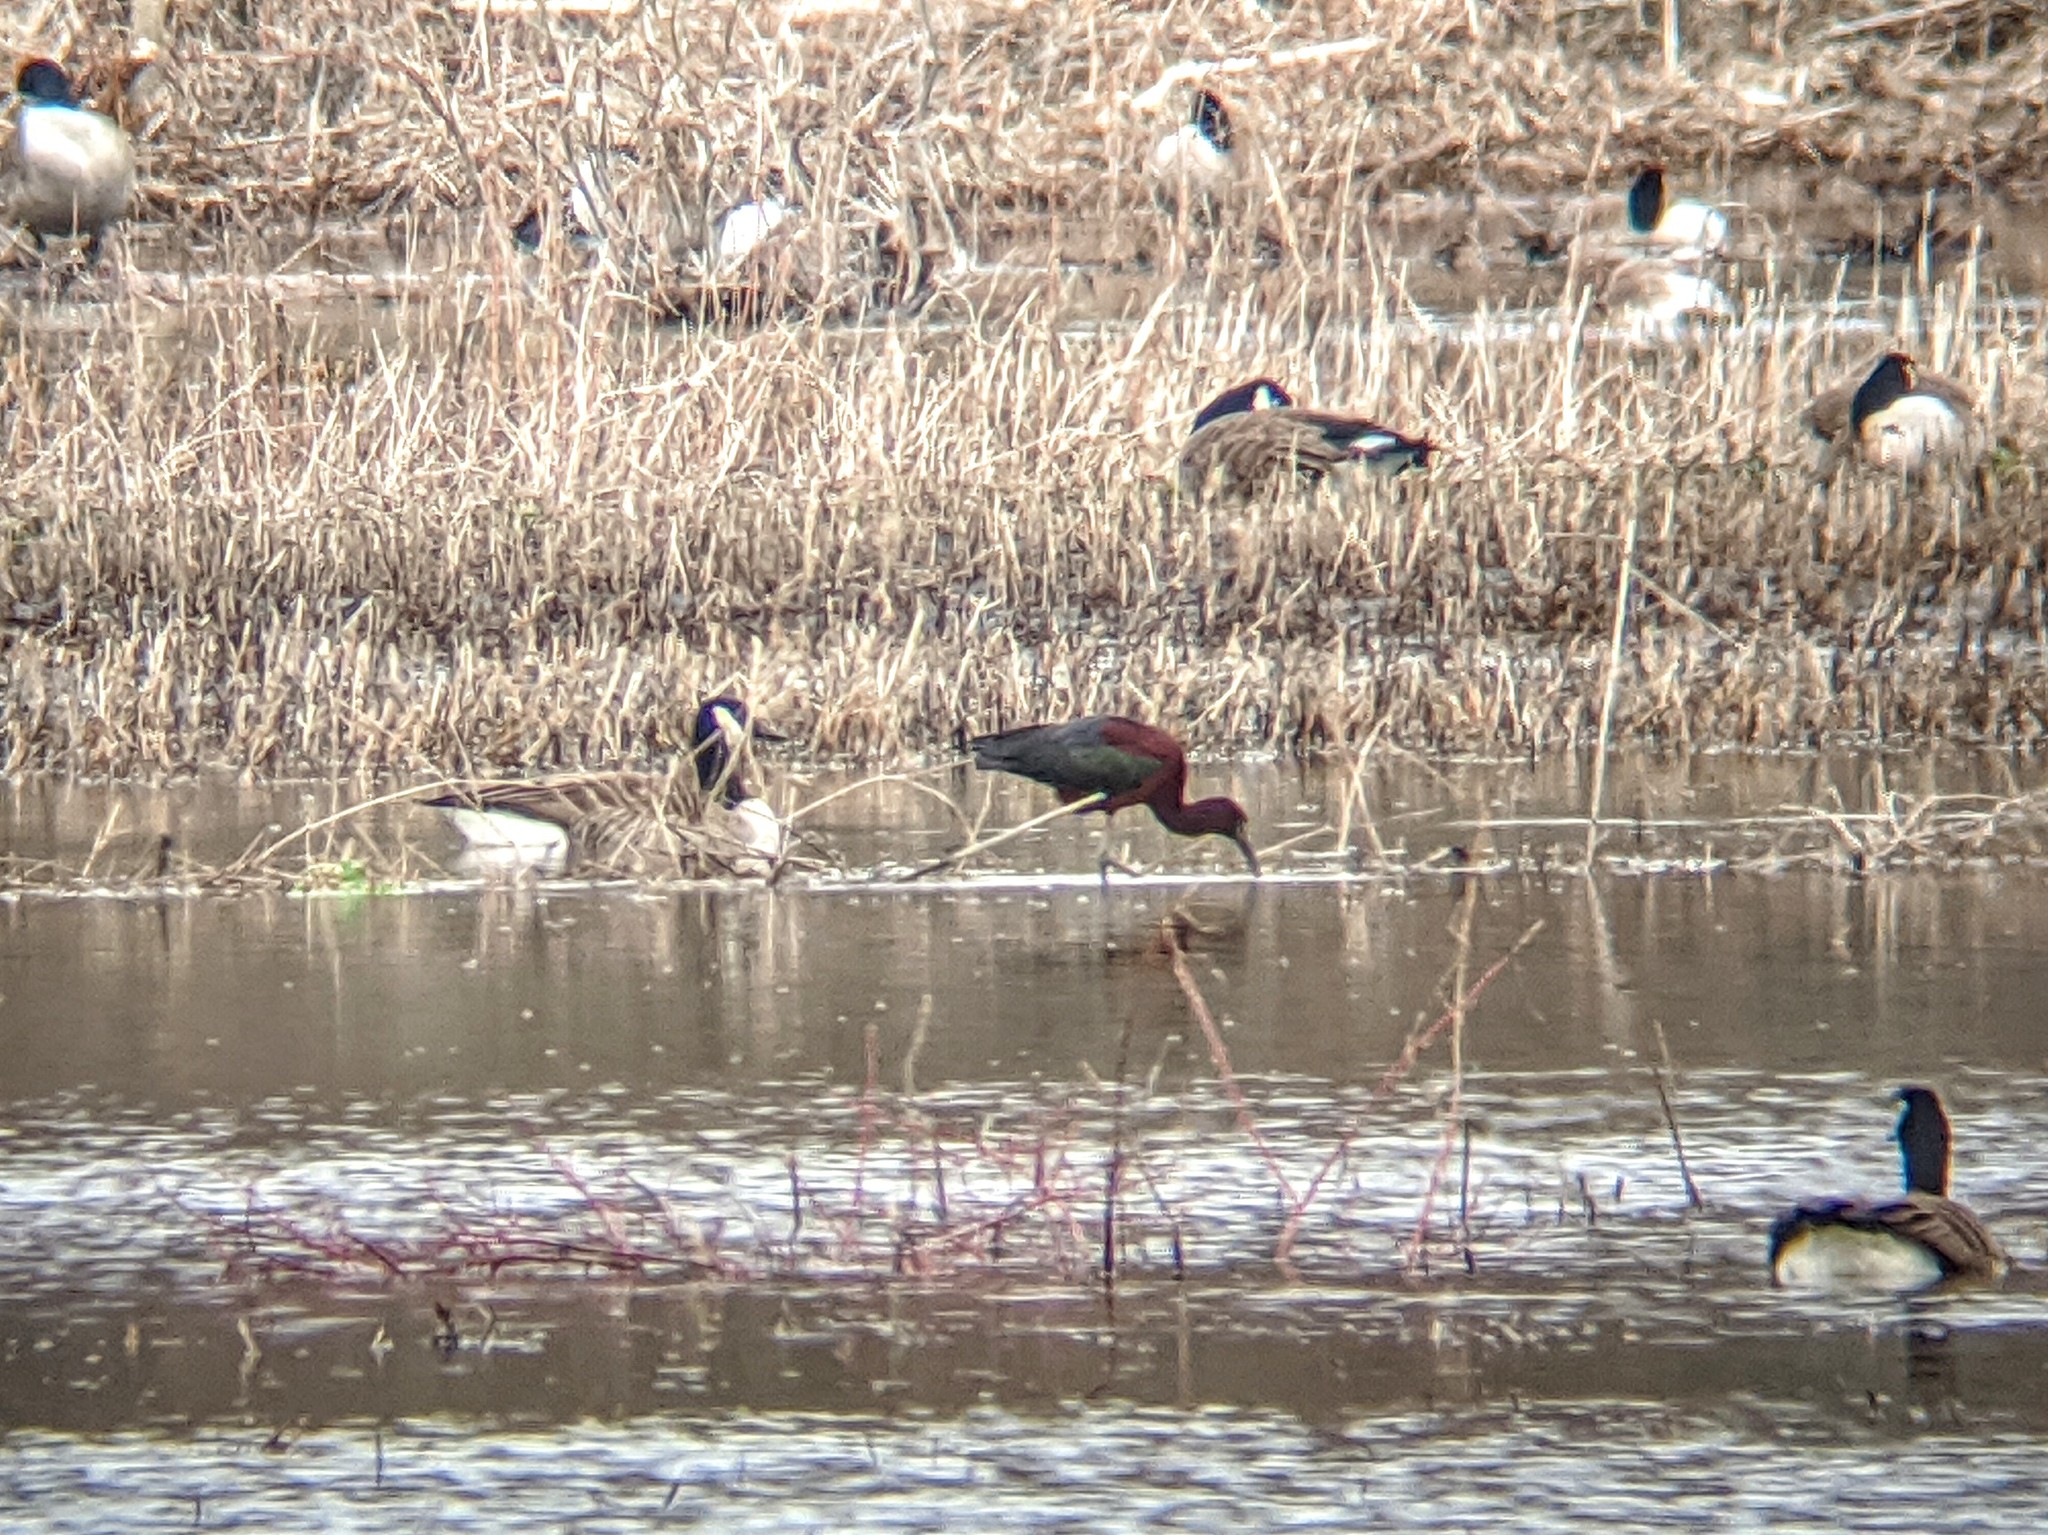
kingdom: Animalia
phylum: Chordata
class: Aves
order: Pelecaniformes
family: Threskiornithidae
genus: Plegadis
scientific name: Plegadis falcinellus
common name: Glossy ibis
